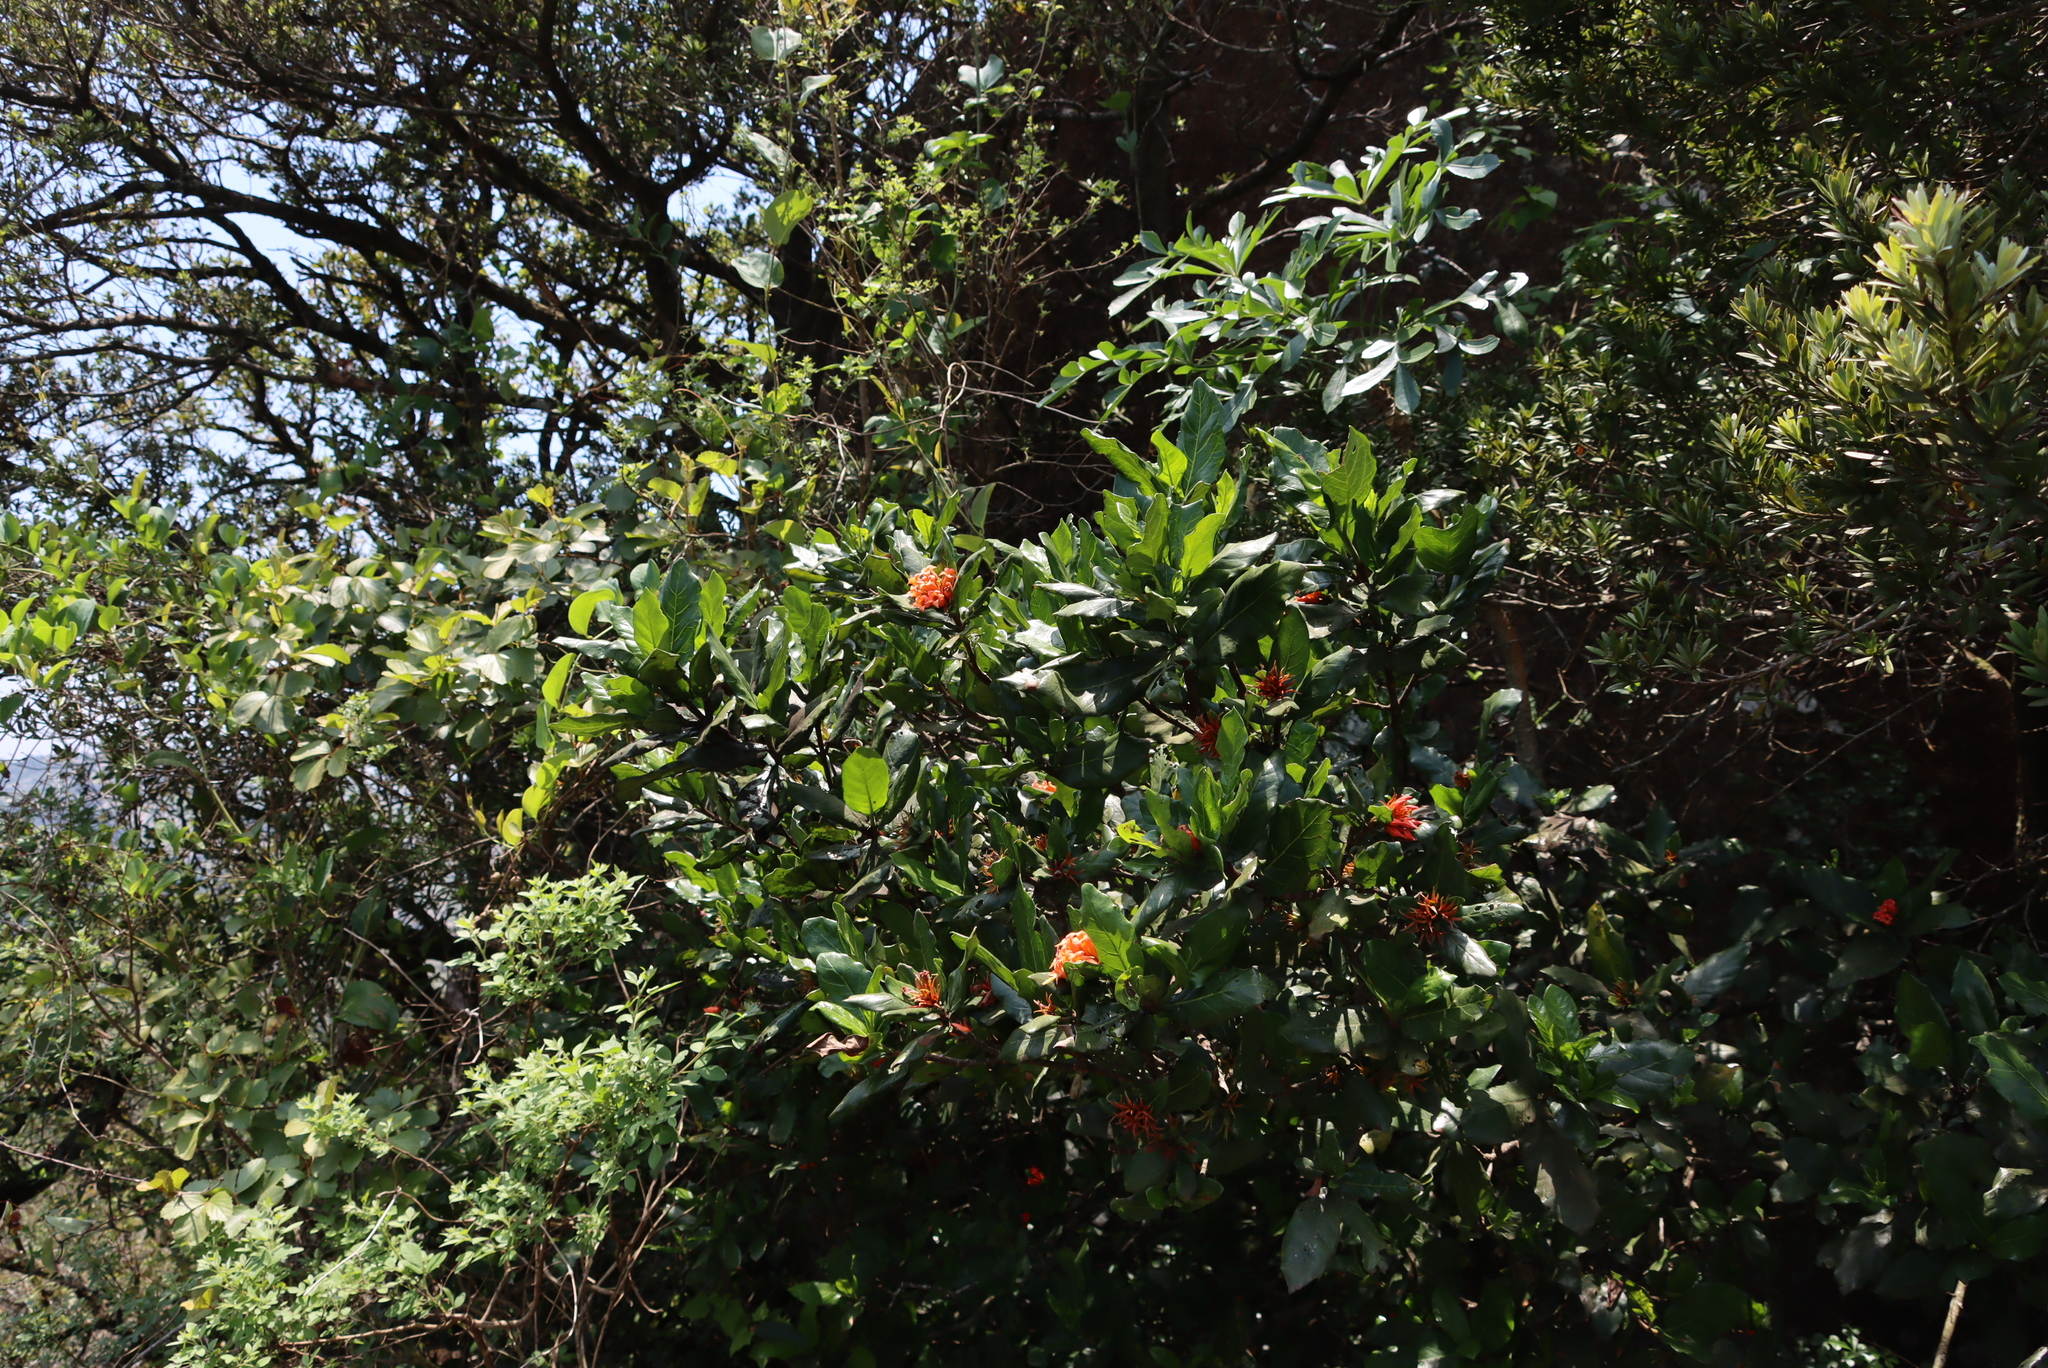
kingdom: Plantae
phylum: Tracheophyta
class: Magnoliopsida
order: Gentianales
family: Rubiaceae
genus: Burchellia
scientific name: Burchellia bubalina
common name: Wild pomegranate
